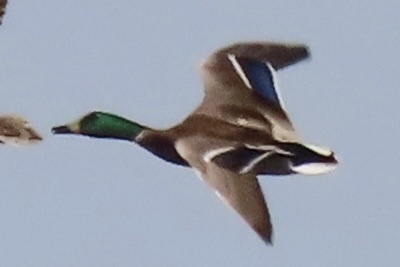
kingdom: Animalia
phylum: Chordata
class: Aves
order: Anseriformes
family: Anatidae
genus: Anas
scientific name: Anas platyrhynchos
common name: Mallard
